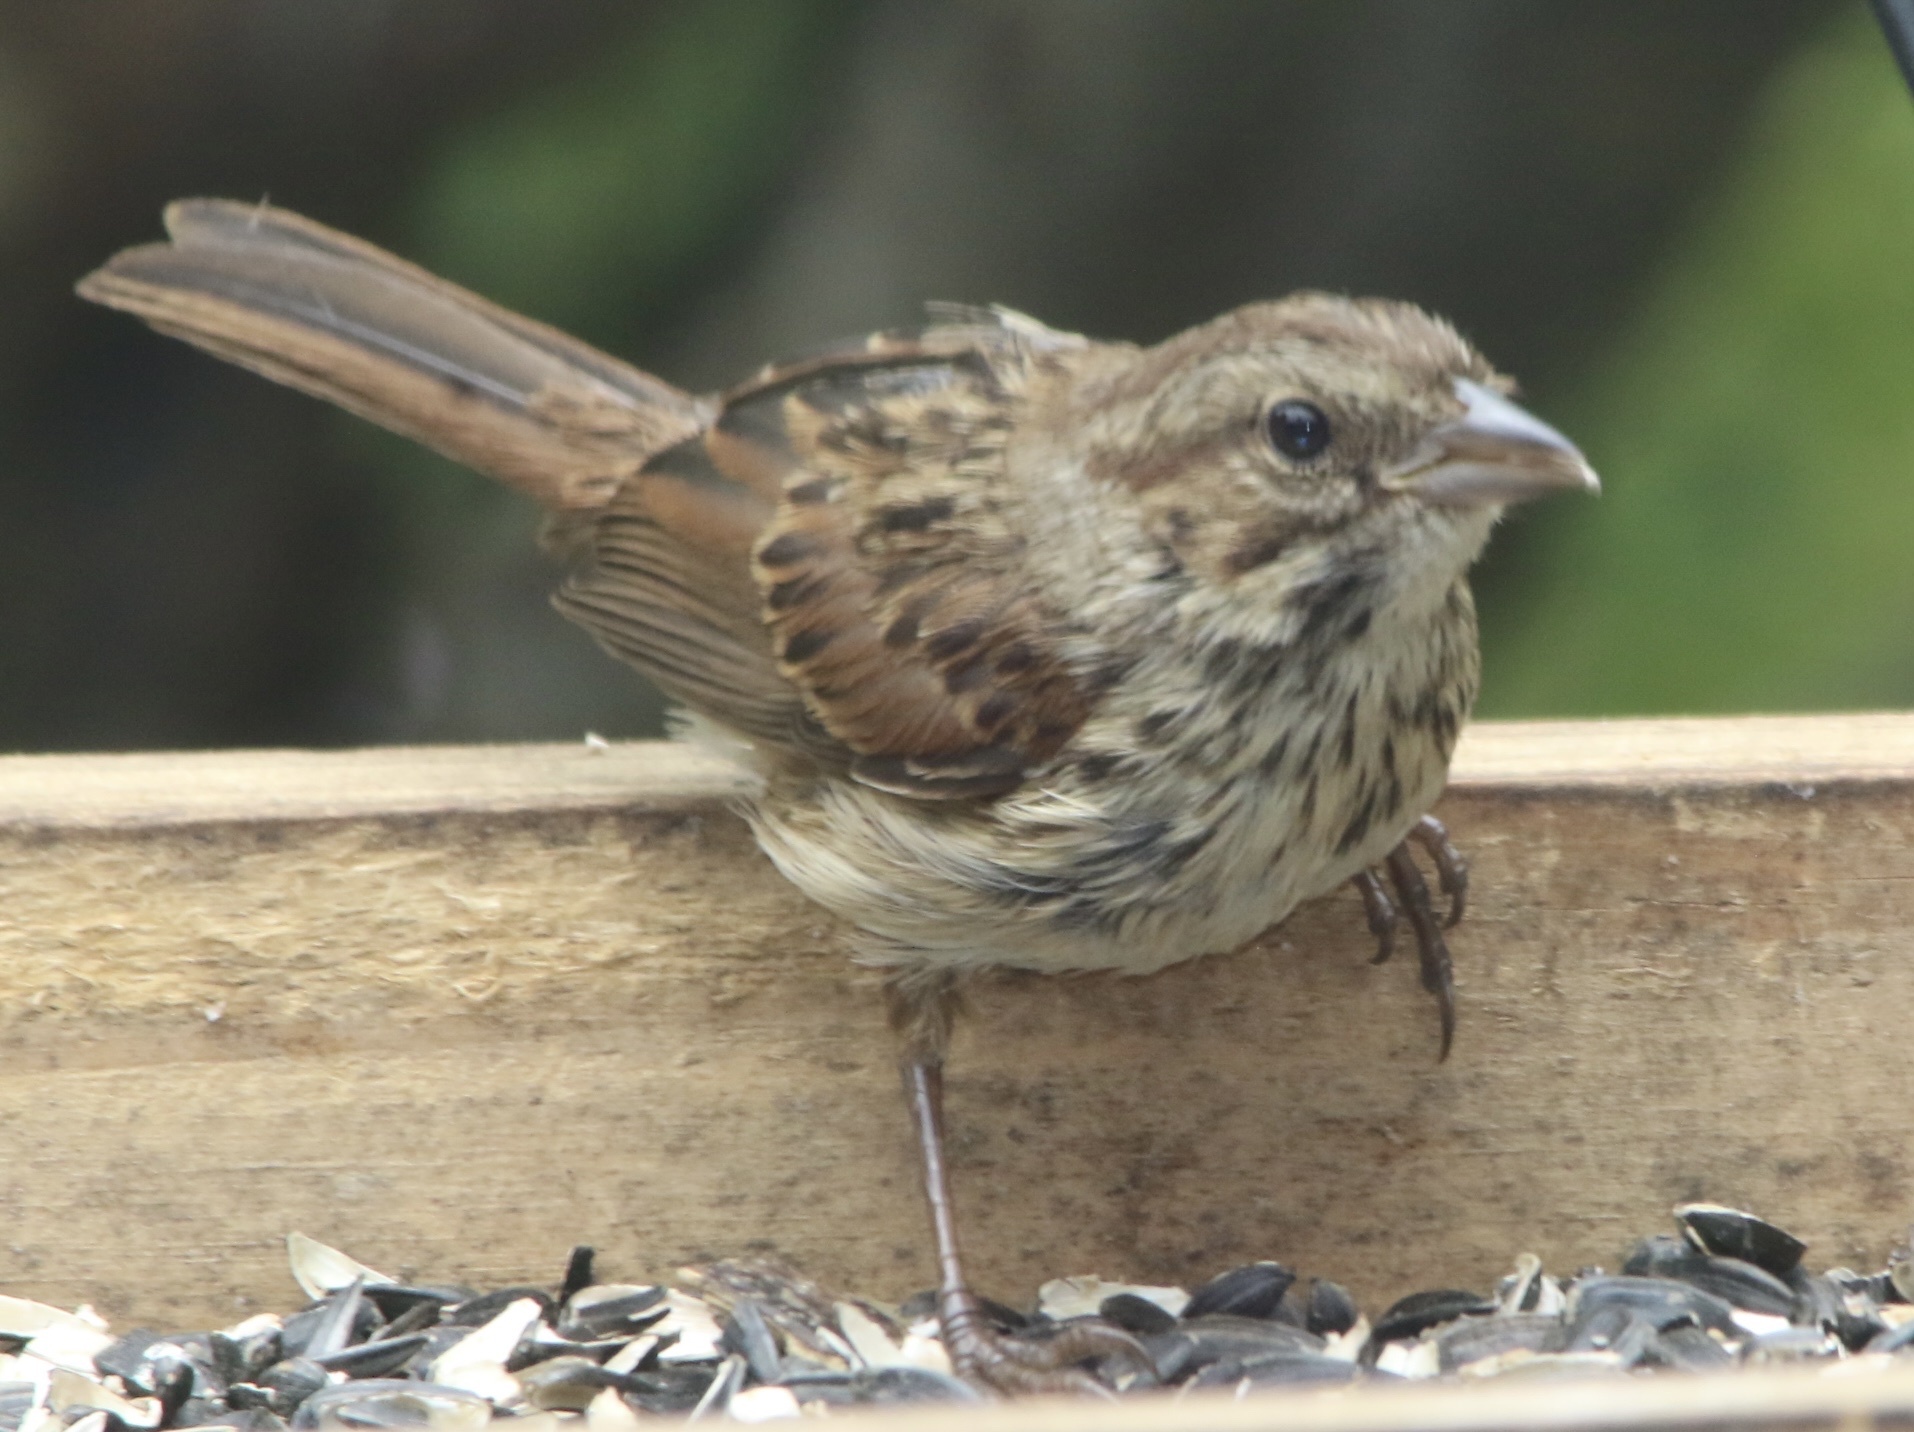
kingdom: Animalia
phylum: Chordata
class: Aves
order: Passeriformes
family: Passerellidae
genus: Melospiza
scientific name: Melospiza melodia
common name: Song sparrow
